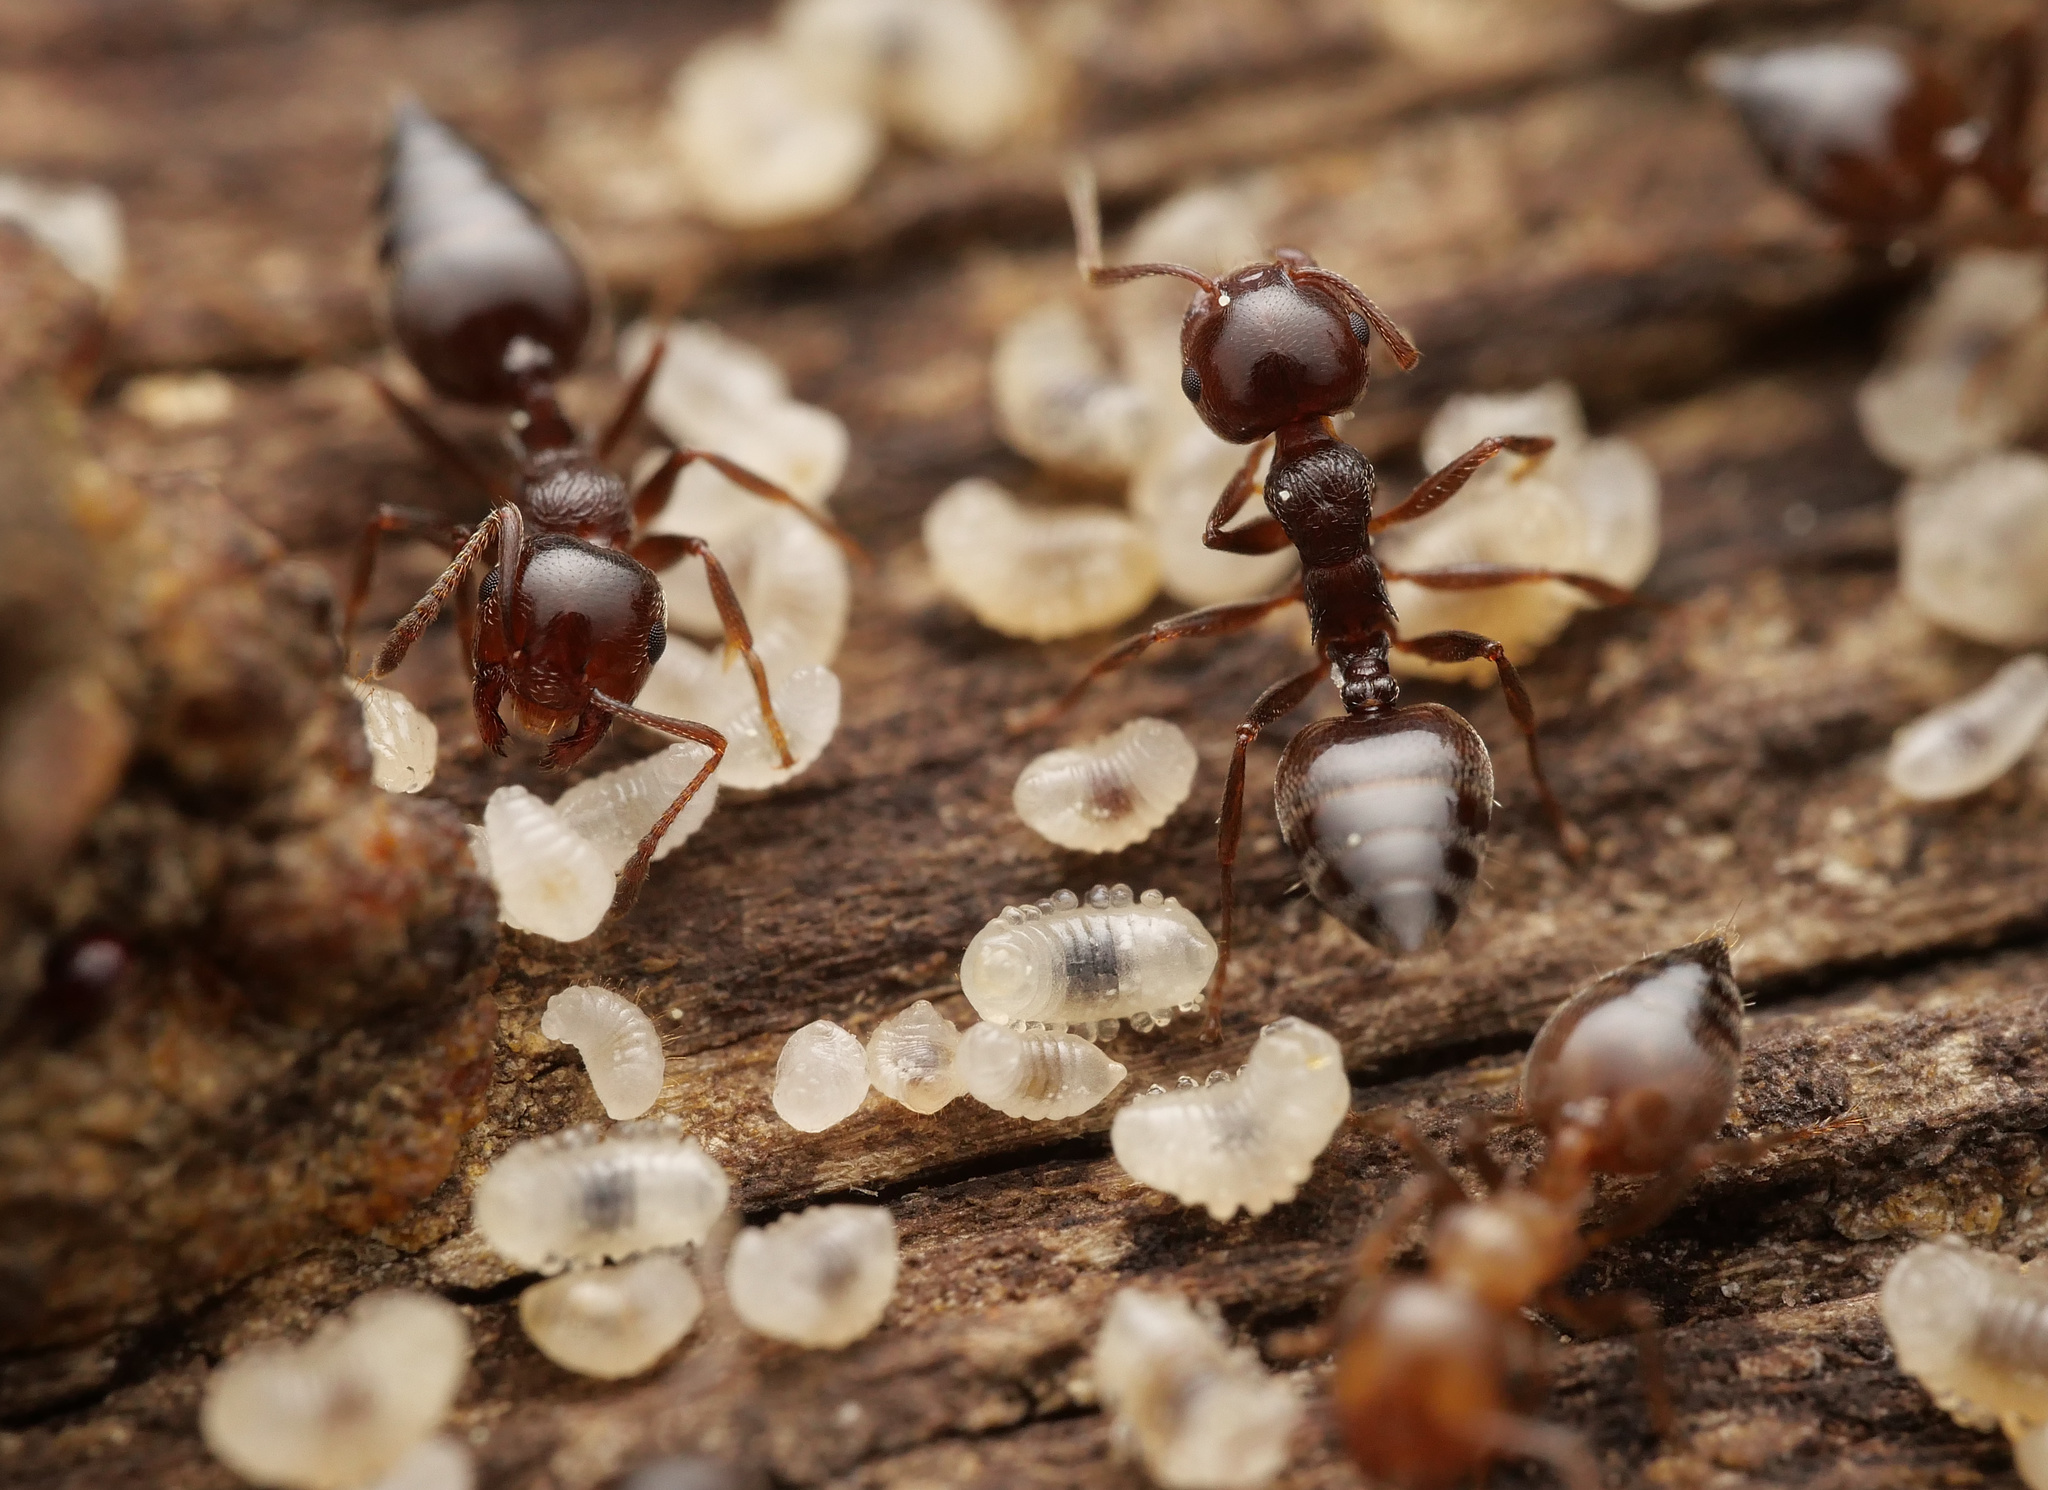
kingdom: Animalia
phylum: Arthropoda
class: Insecta
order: Hymenoptera
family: Formicidae
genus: Crematogaster
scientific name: Crematogaster ionia
